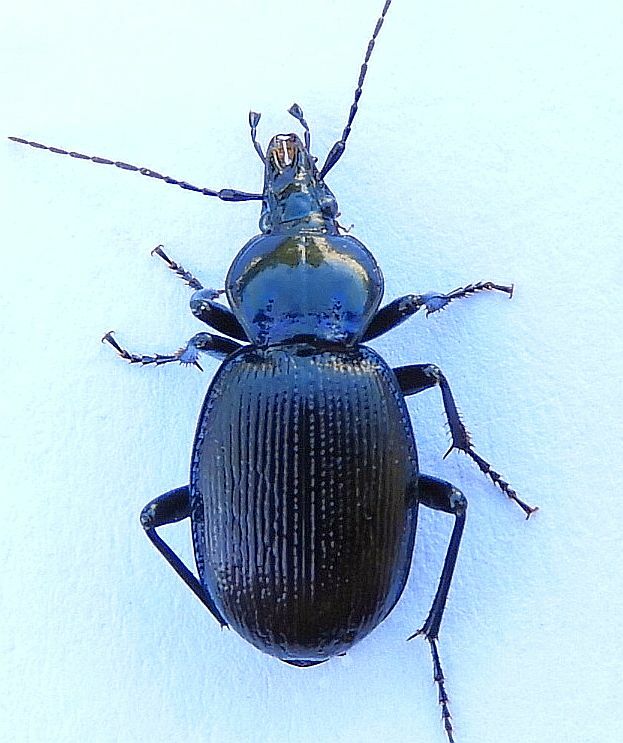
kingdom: Animalia
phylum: Arthropoda
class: Insecta
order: Coleoptera
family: Carabidae
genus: Sphaeroderus
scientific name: Sphaeroderus stenostomus
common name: Small snail-eating ground beetle
